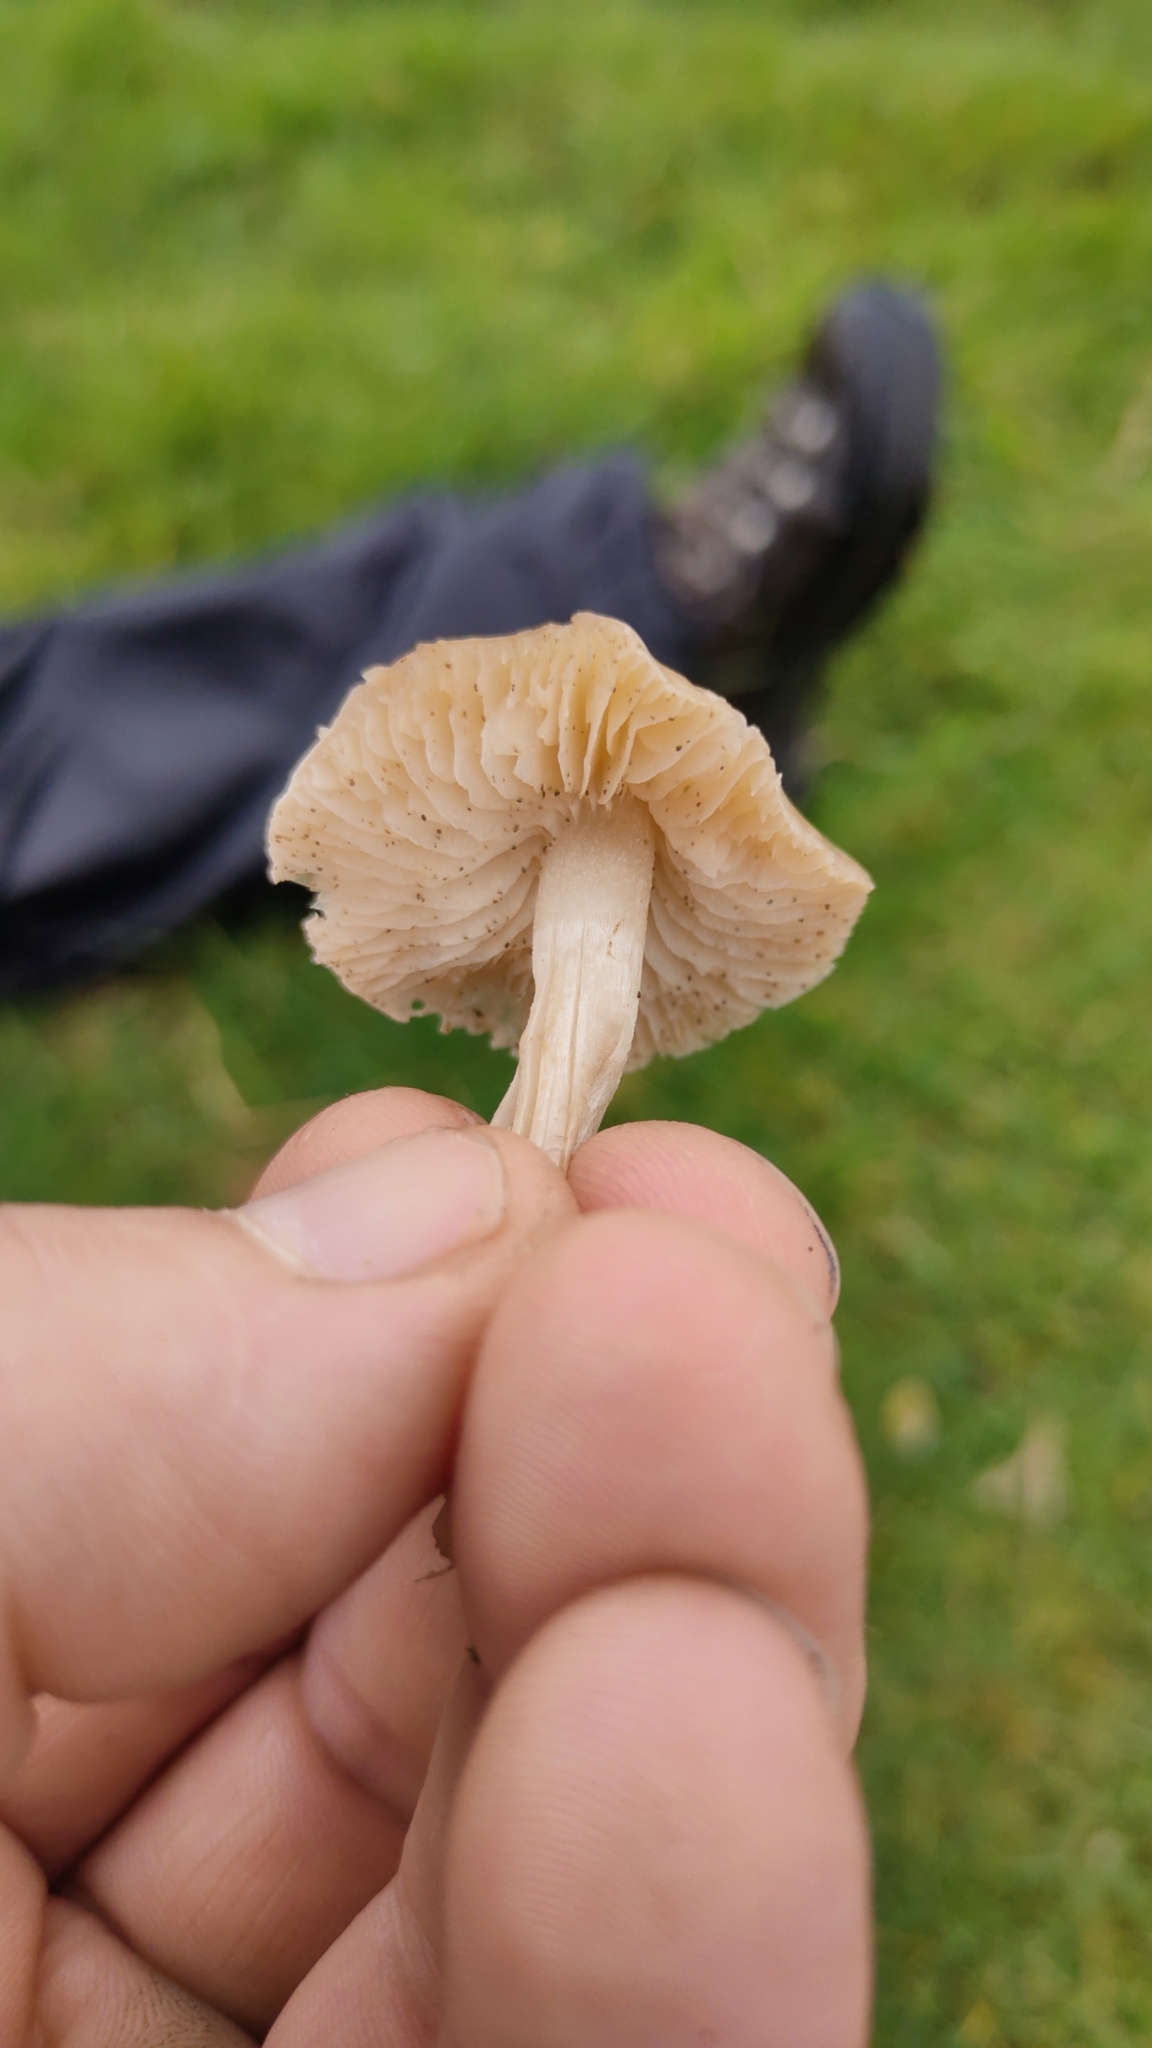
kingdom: Fungi
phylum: Basidiomycota
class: Agaricomycetes
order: Agaricales
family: Tricholomataceae
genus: Dermoloma
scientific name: Dermoloma cuneifolium
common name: Crazed cap
